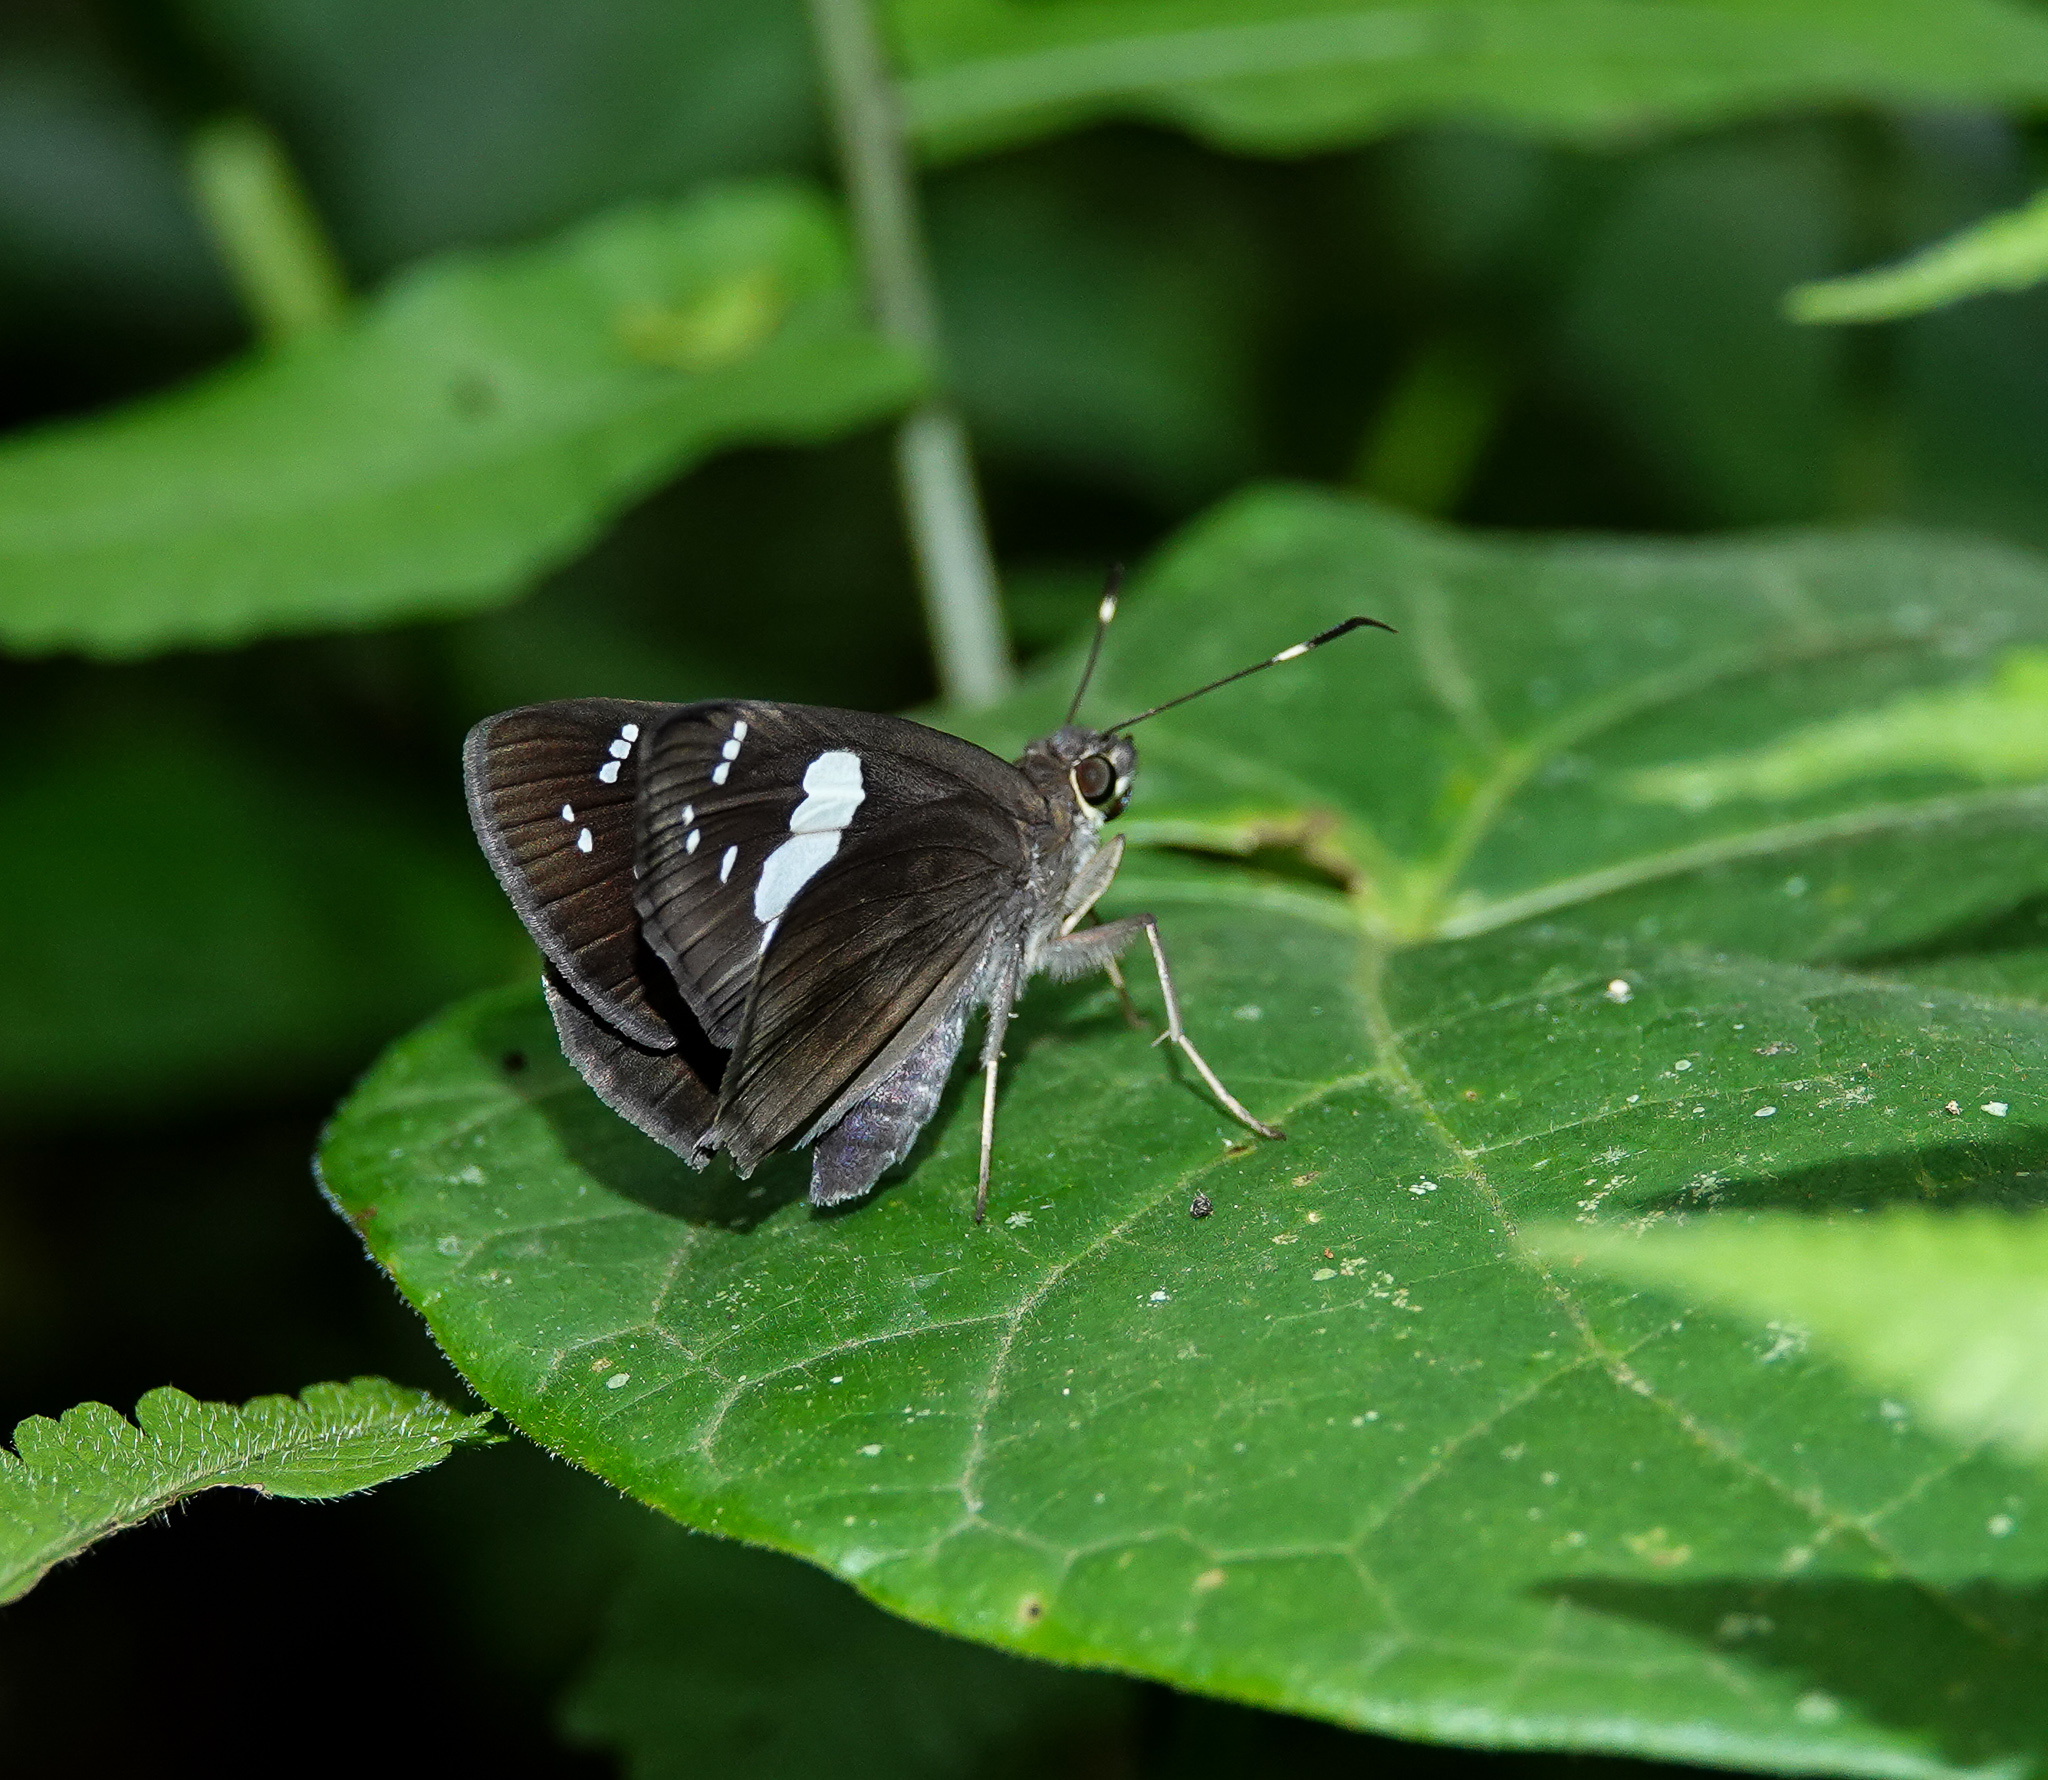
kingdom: Animalia
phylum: Arthropoda
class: Insecta
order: Lepidoptera
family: Hesperiidae
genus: Notocrypta
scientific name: Notocrypta curvifascia
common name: Restricted demon
